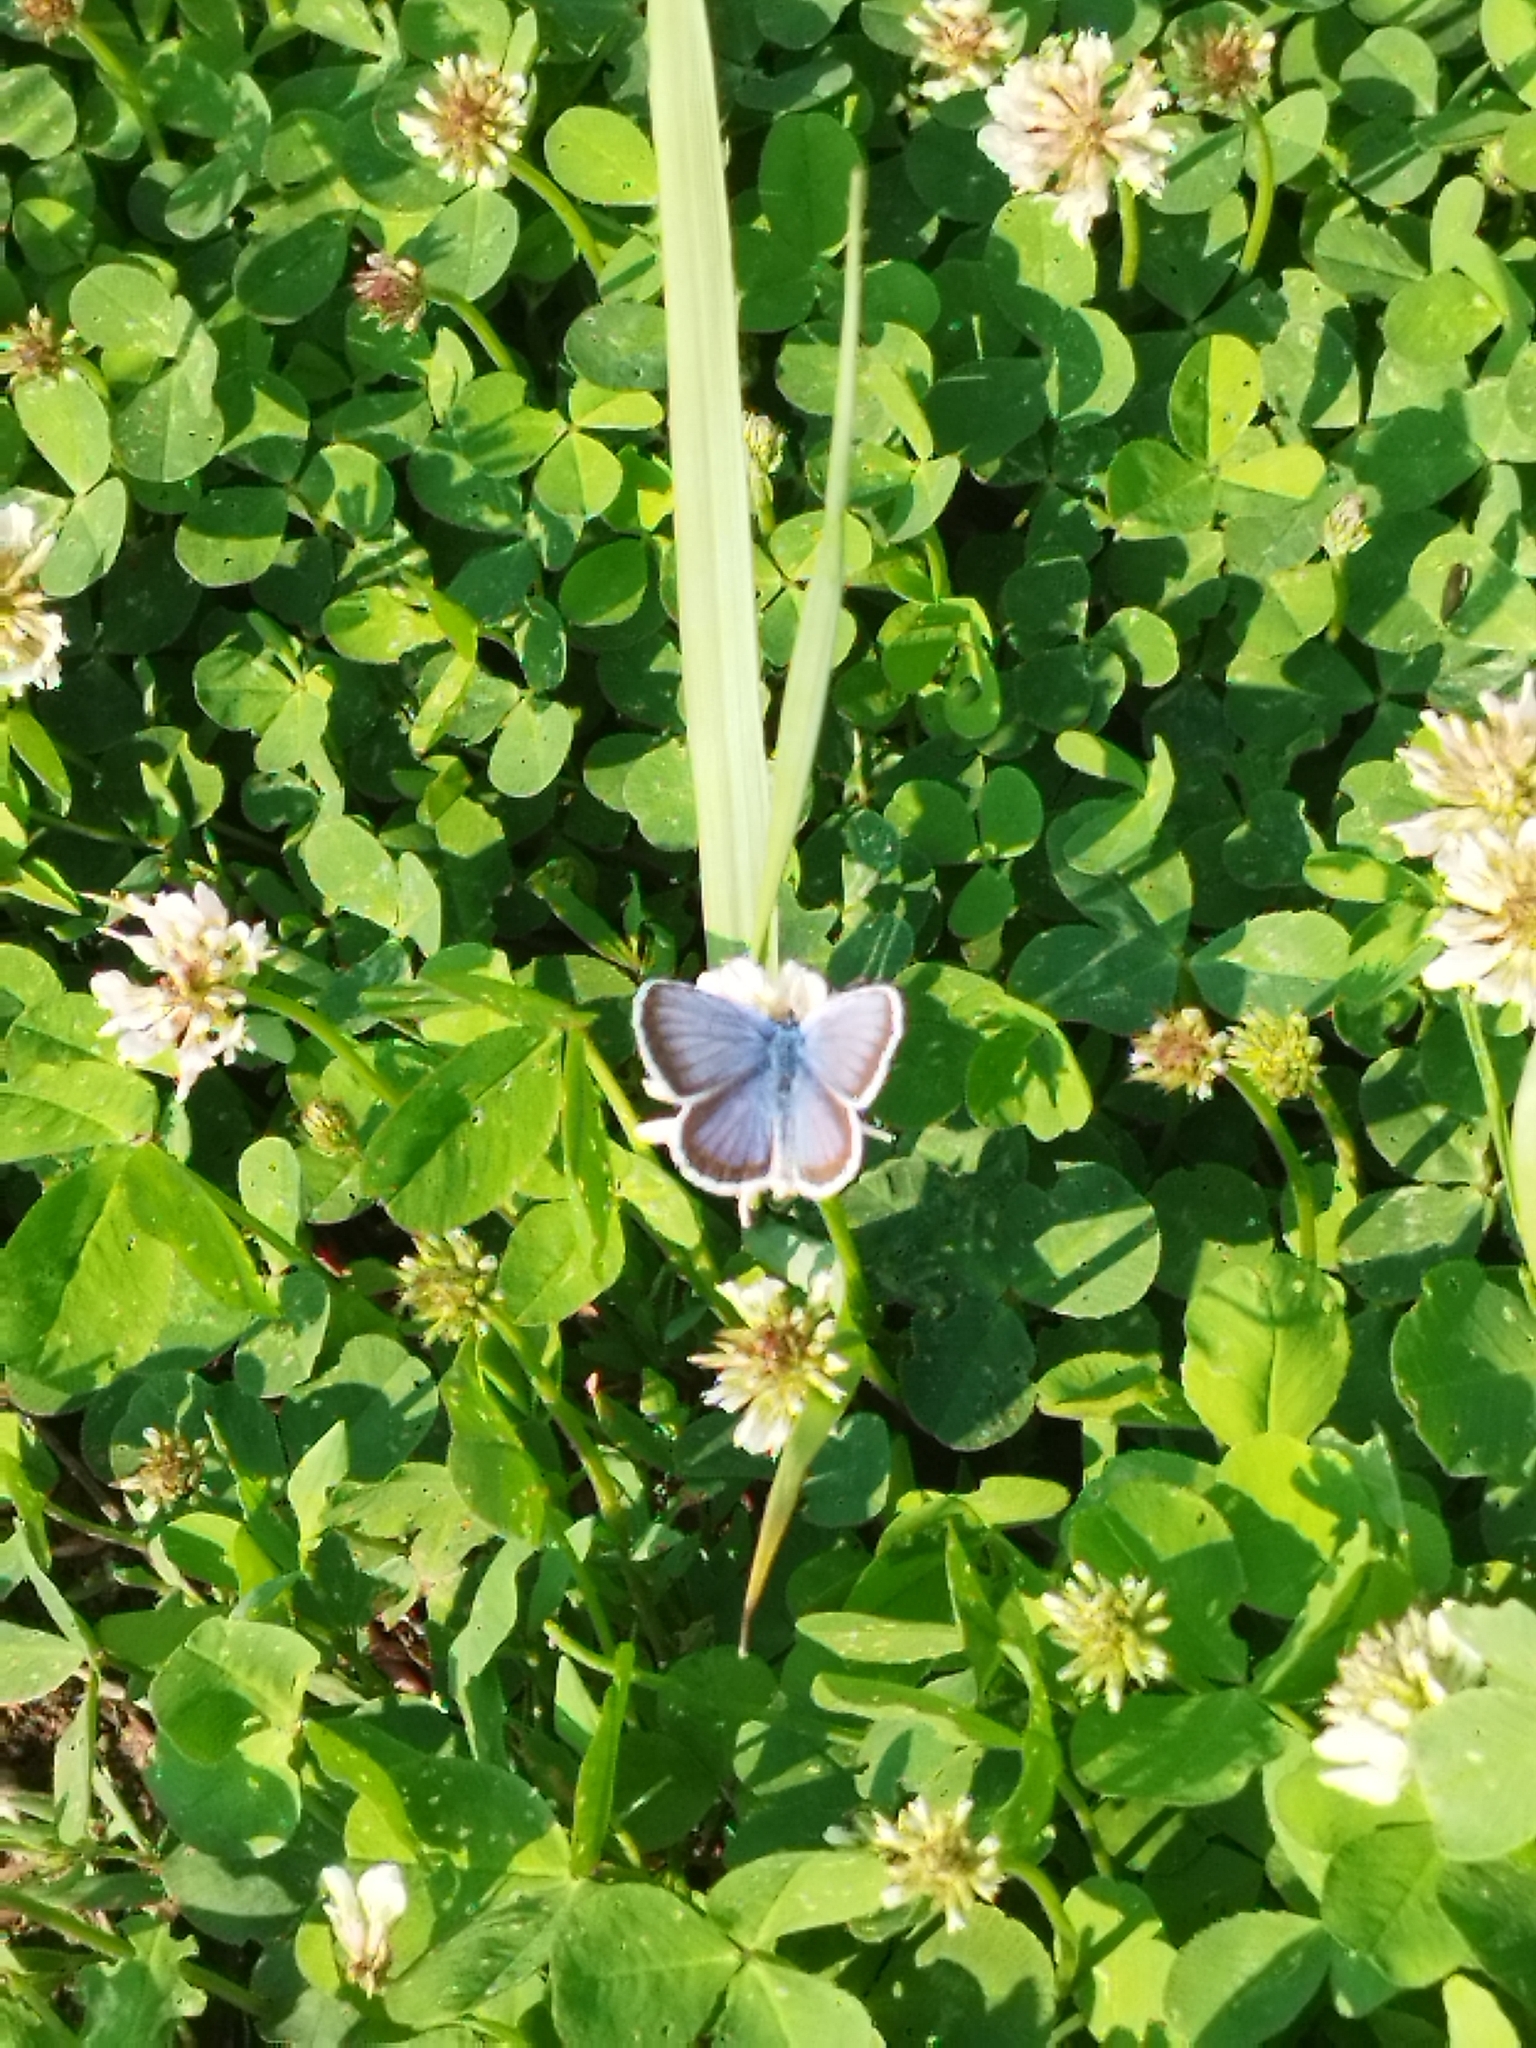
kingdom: Animalia
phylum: Arthropoda
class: Insecta
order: Lepidoptera
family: Lycaenidae
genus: Plebejus
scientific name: Plebejus argus
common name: Silver-studded blue
